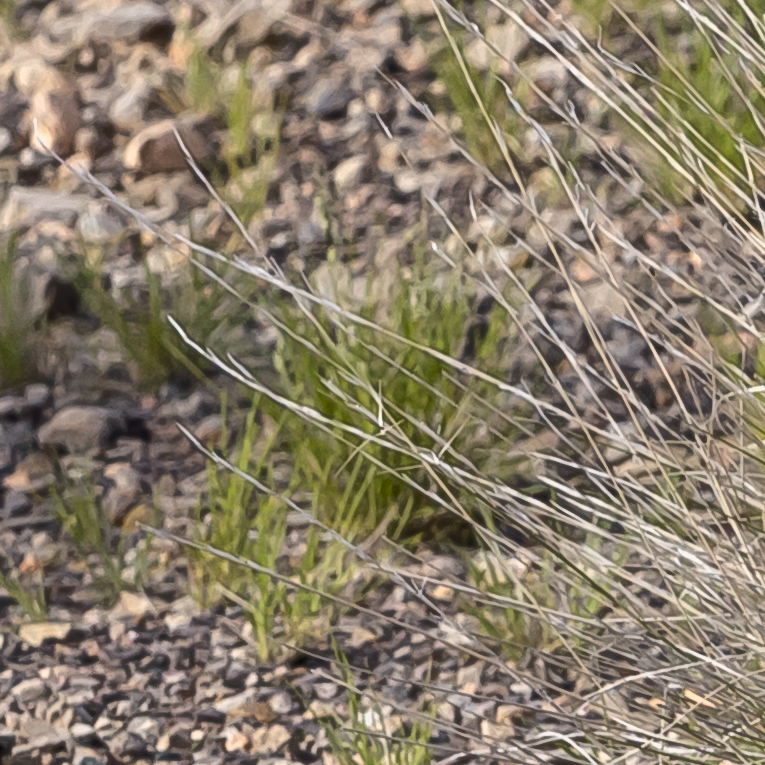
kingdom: Plantae
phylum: Tracheophyta
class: Liliopsida
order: Poales
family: Poaceae
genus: Aristida
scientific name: Aristida nitidula
